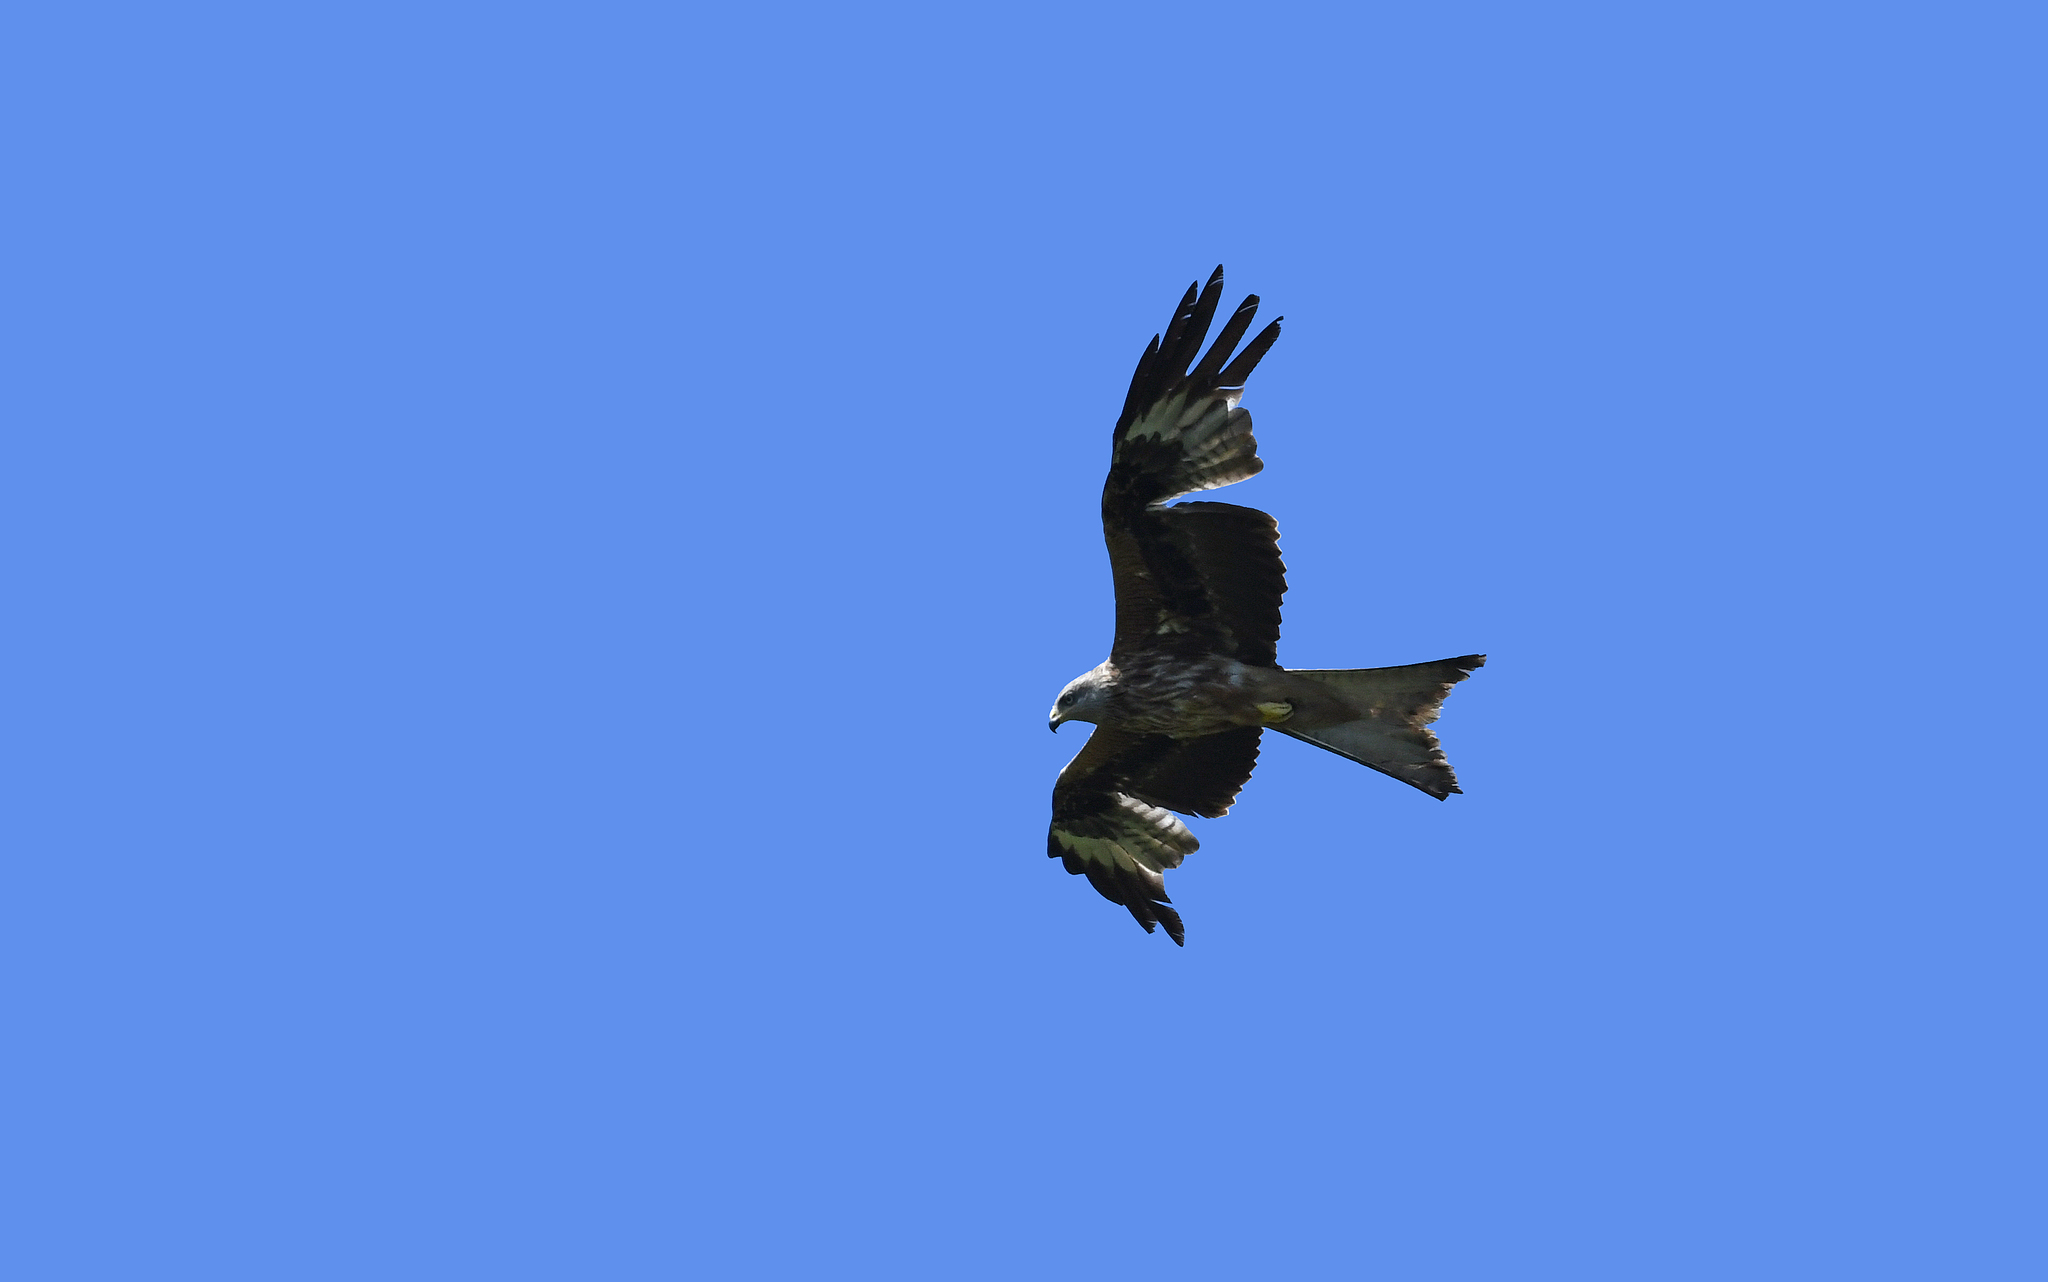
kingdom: Animalia
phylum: Chordata
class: Aves
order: Accipitriformes
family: Accipitridae
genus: Milvus
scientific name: Milvus milvus
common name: Red kite
